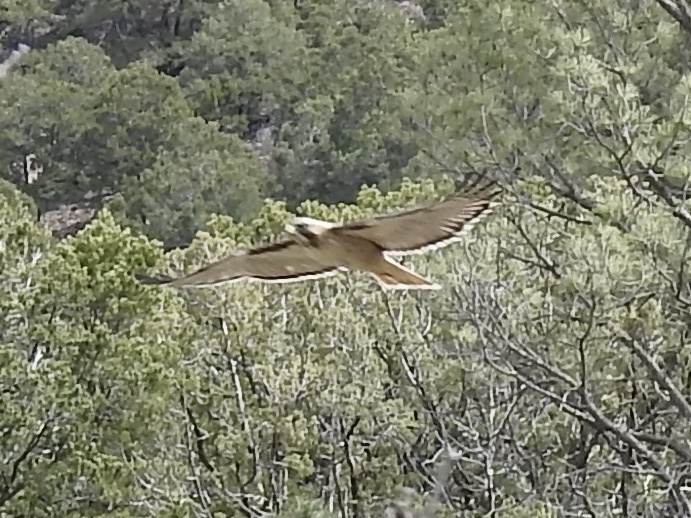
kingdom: Animalia
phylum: Chordata
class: Aves
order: Accipitriformes
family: Accipitridae
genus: Buteo
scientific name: Buteo jamaicensis
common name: Red-tailed hawk
